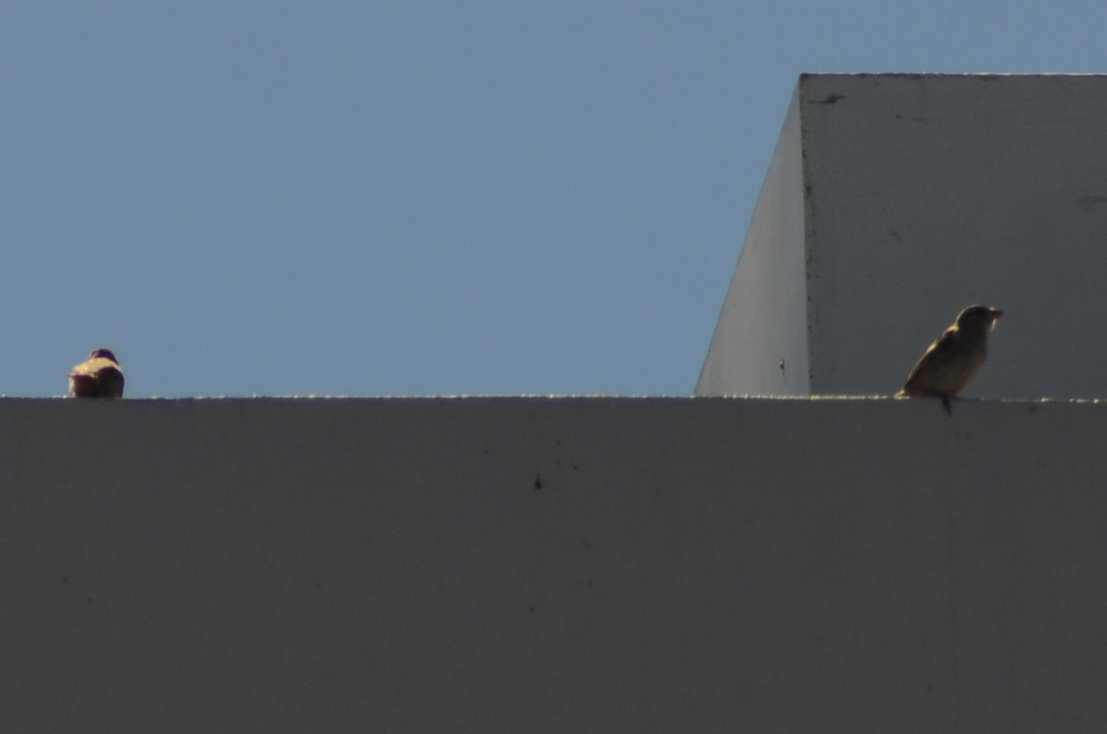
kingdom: Animalia
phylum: Chordata
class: Aves
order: Passeriformes
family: Passeridae
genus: Passer
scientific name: Passer domesticus
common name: House sparrow
